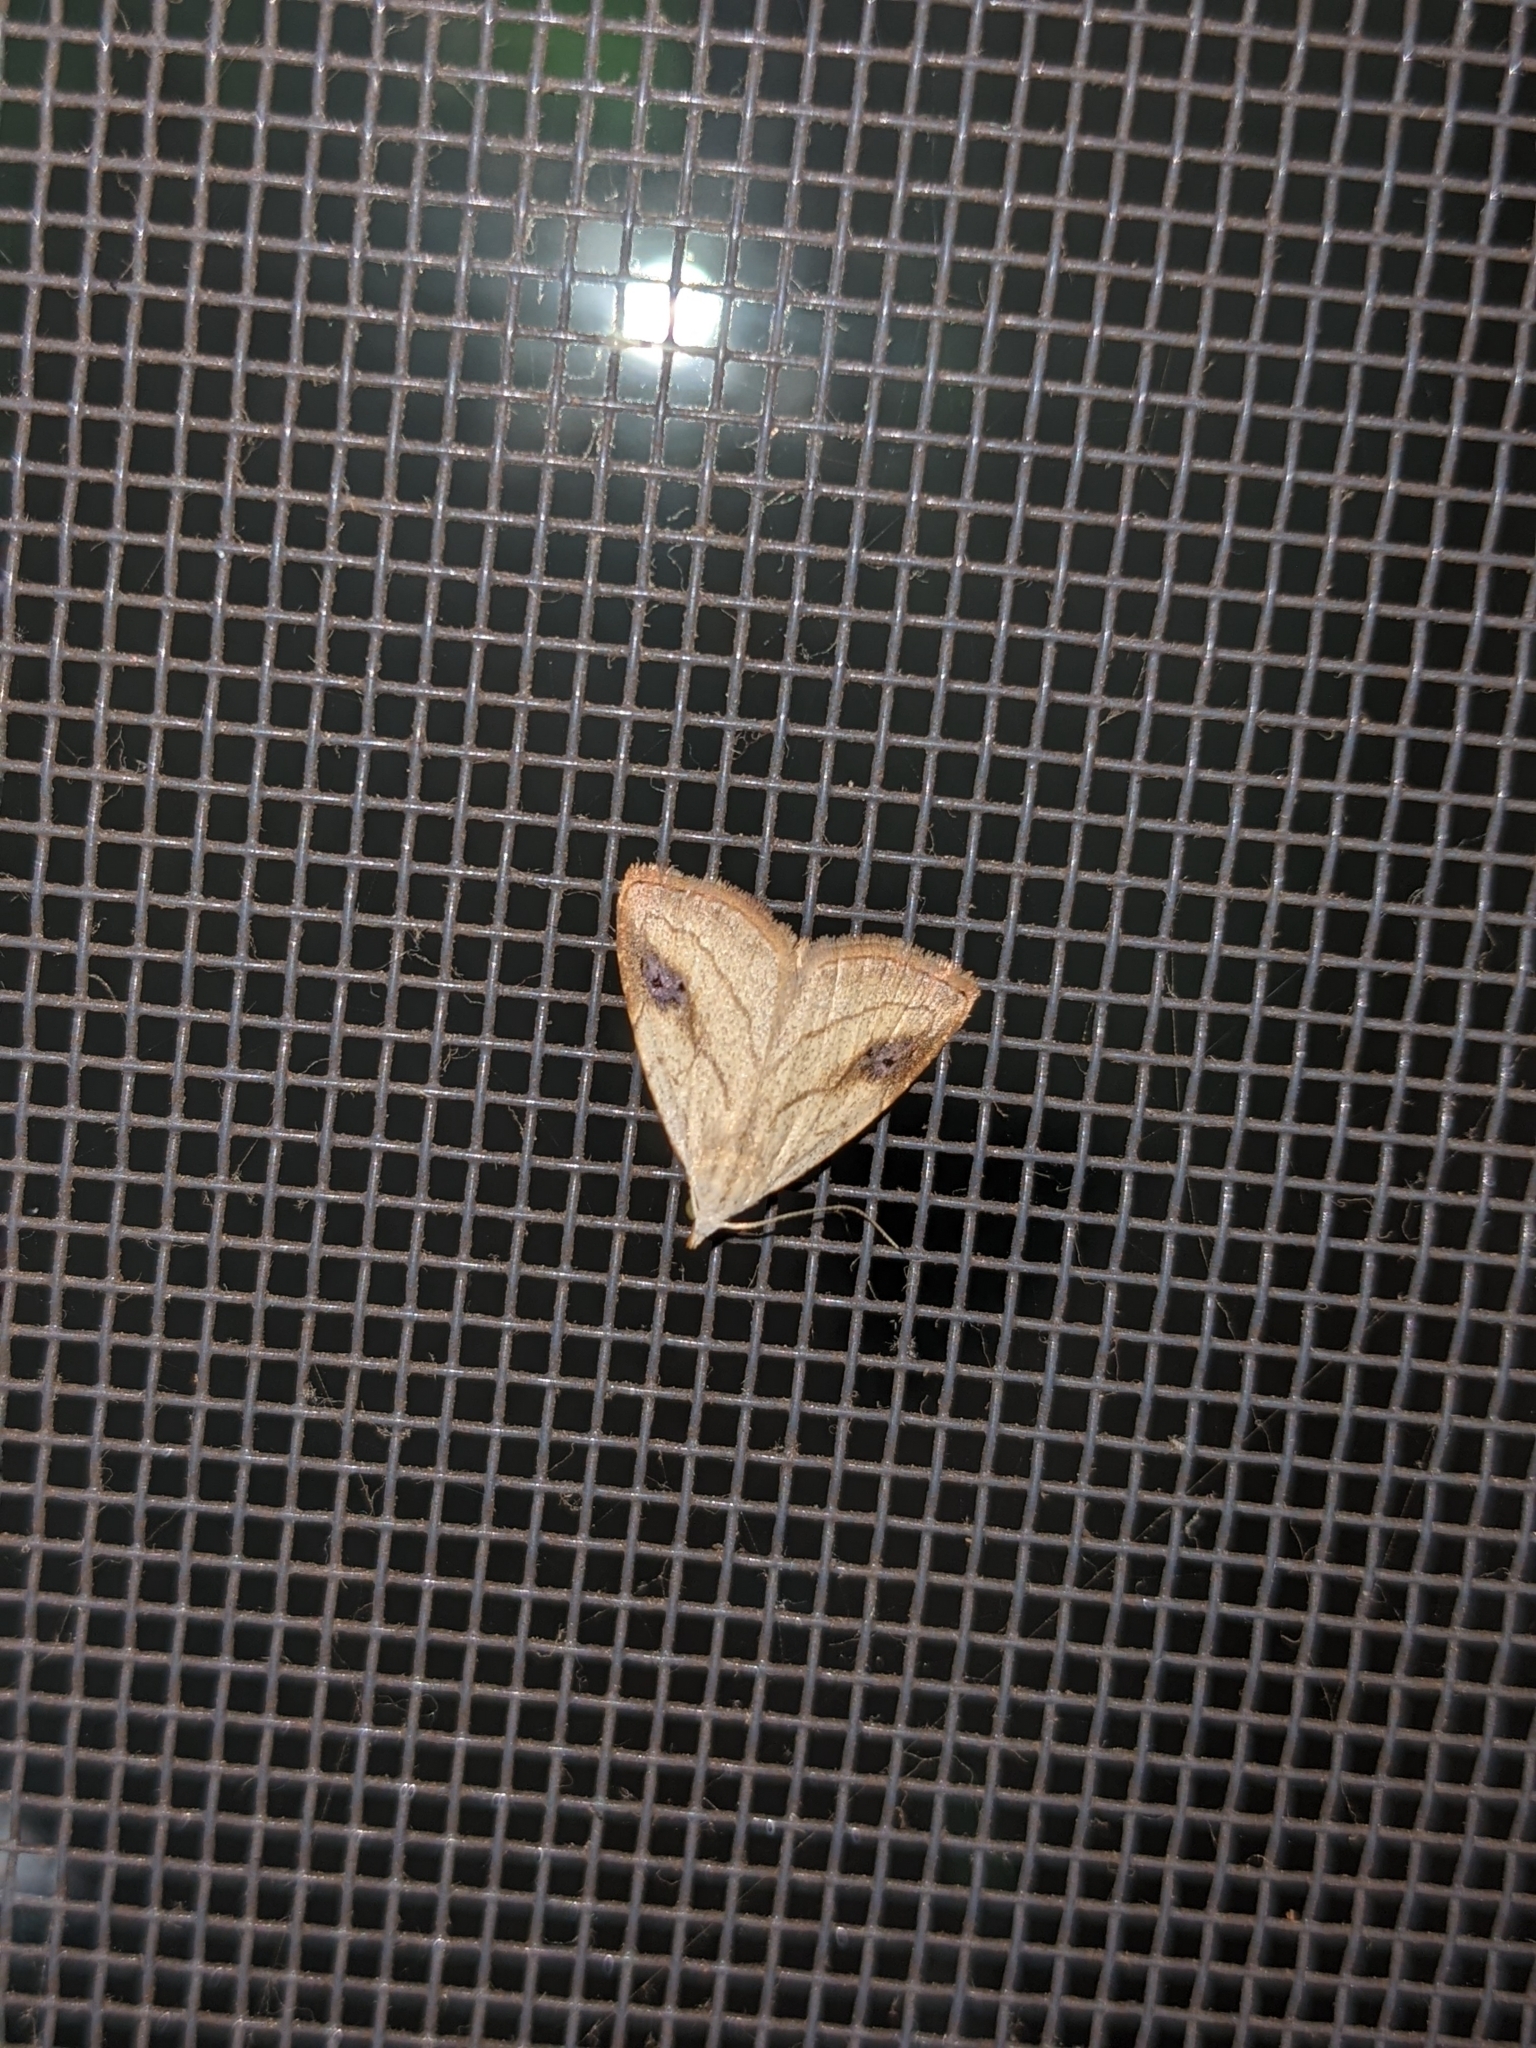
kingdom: Animalia
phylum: Arthropoda
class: Insecta
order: Lepidoptera
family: Erebidae
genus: Rivula
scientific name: Rivula propinqualis
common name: Spotted grass moth
